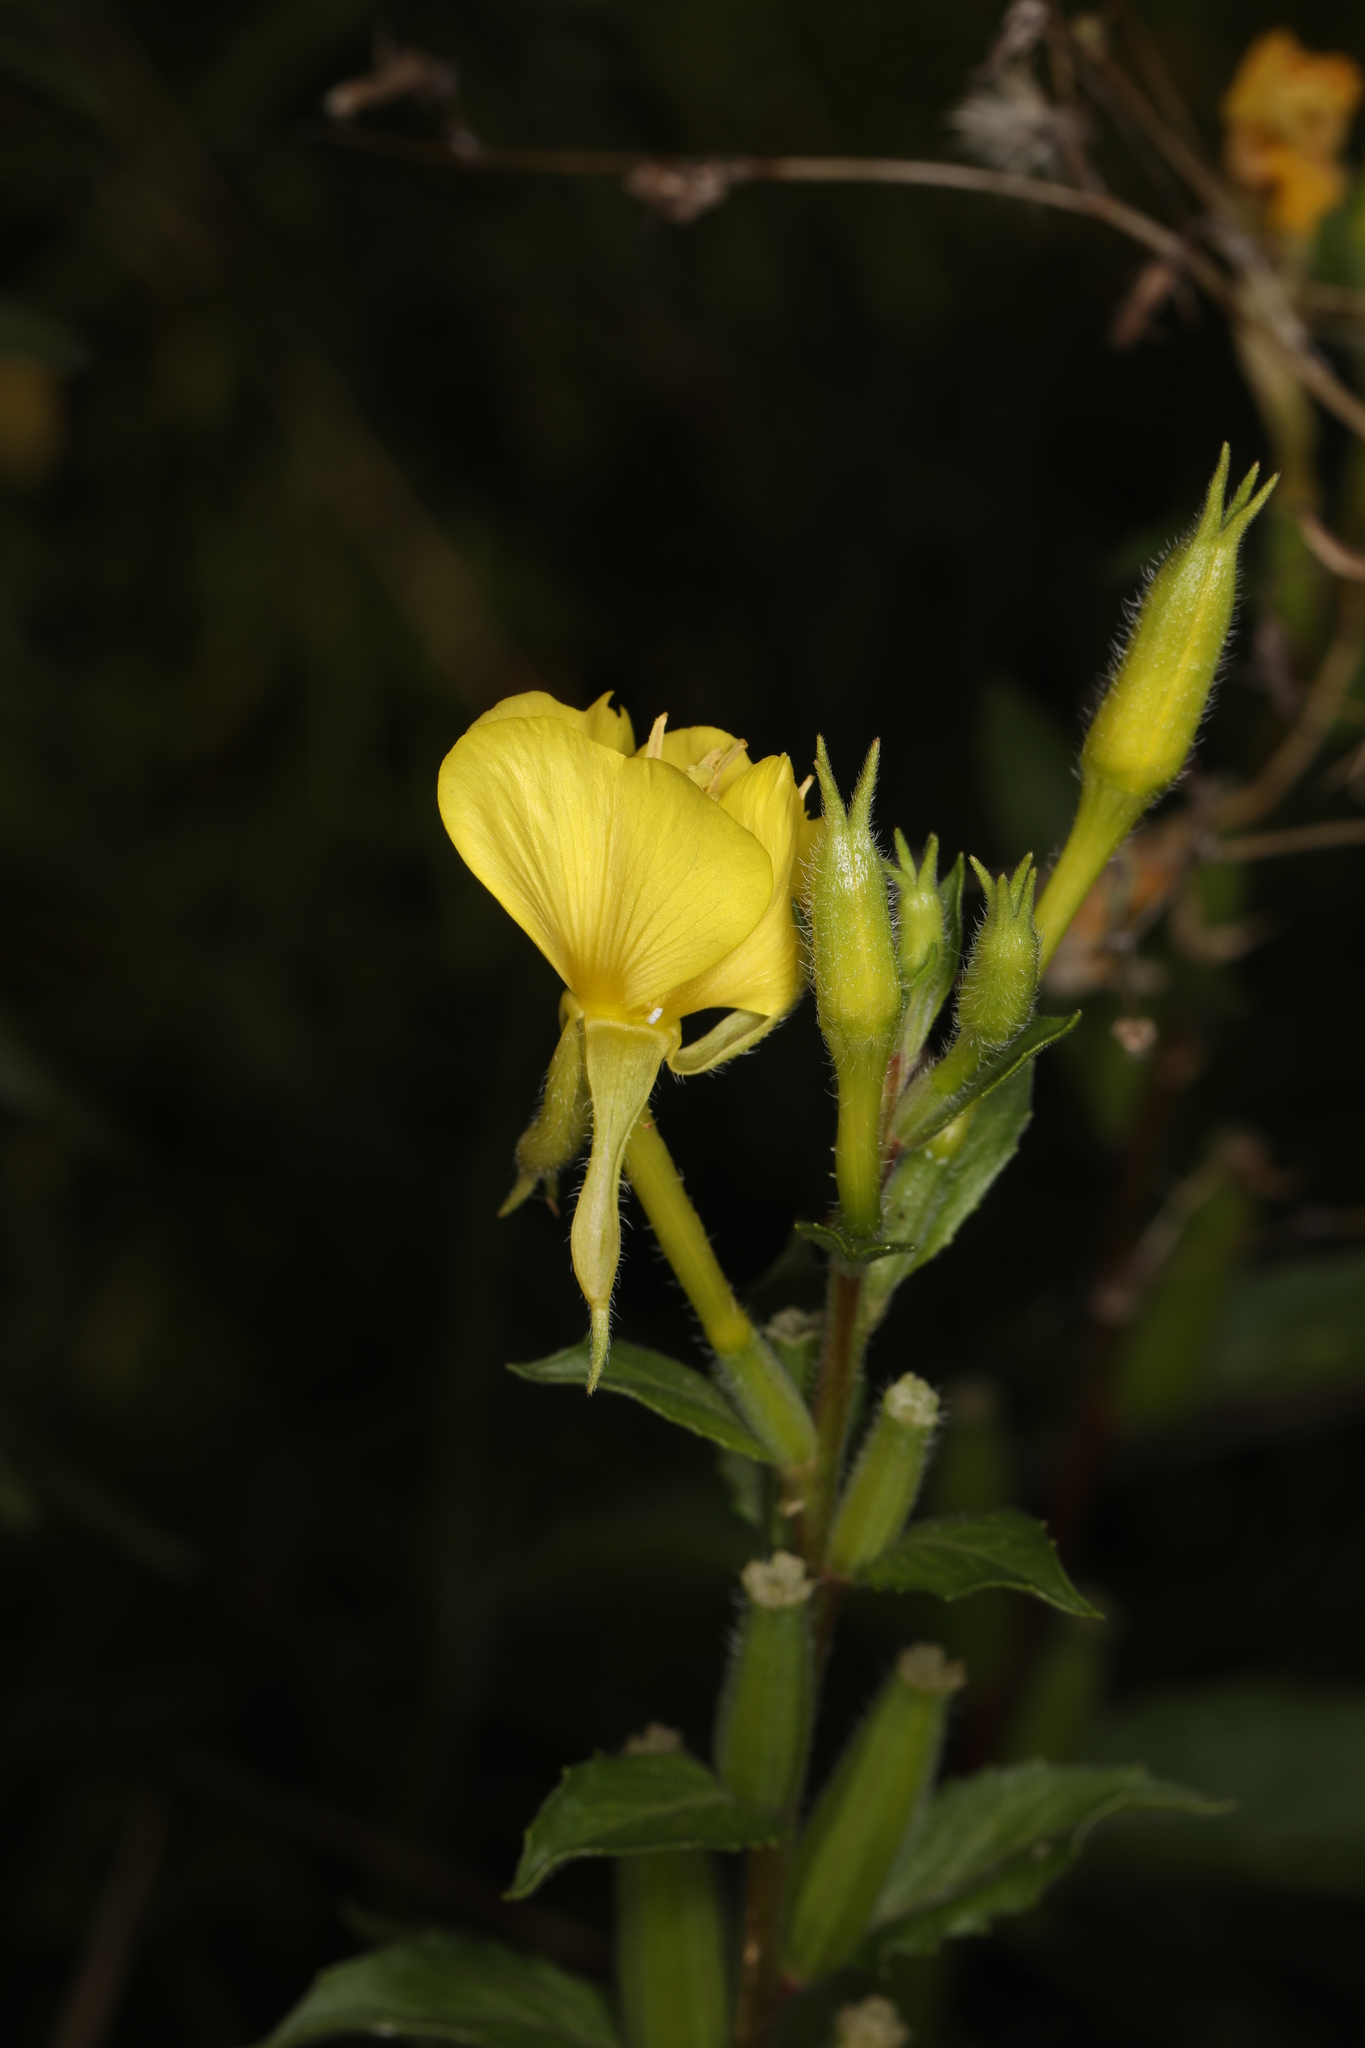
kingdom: Plantae
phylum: Tracheophyta
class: Magnoliopsida
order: Myrtales
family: Onagraceae
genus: Oenothera
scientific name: Oenothera biennis
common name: Common evening-primrose
